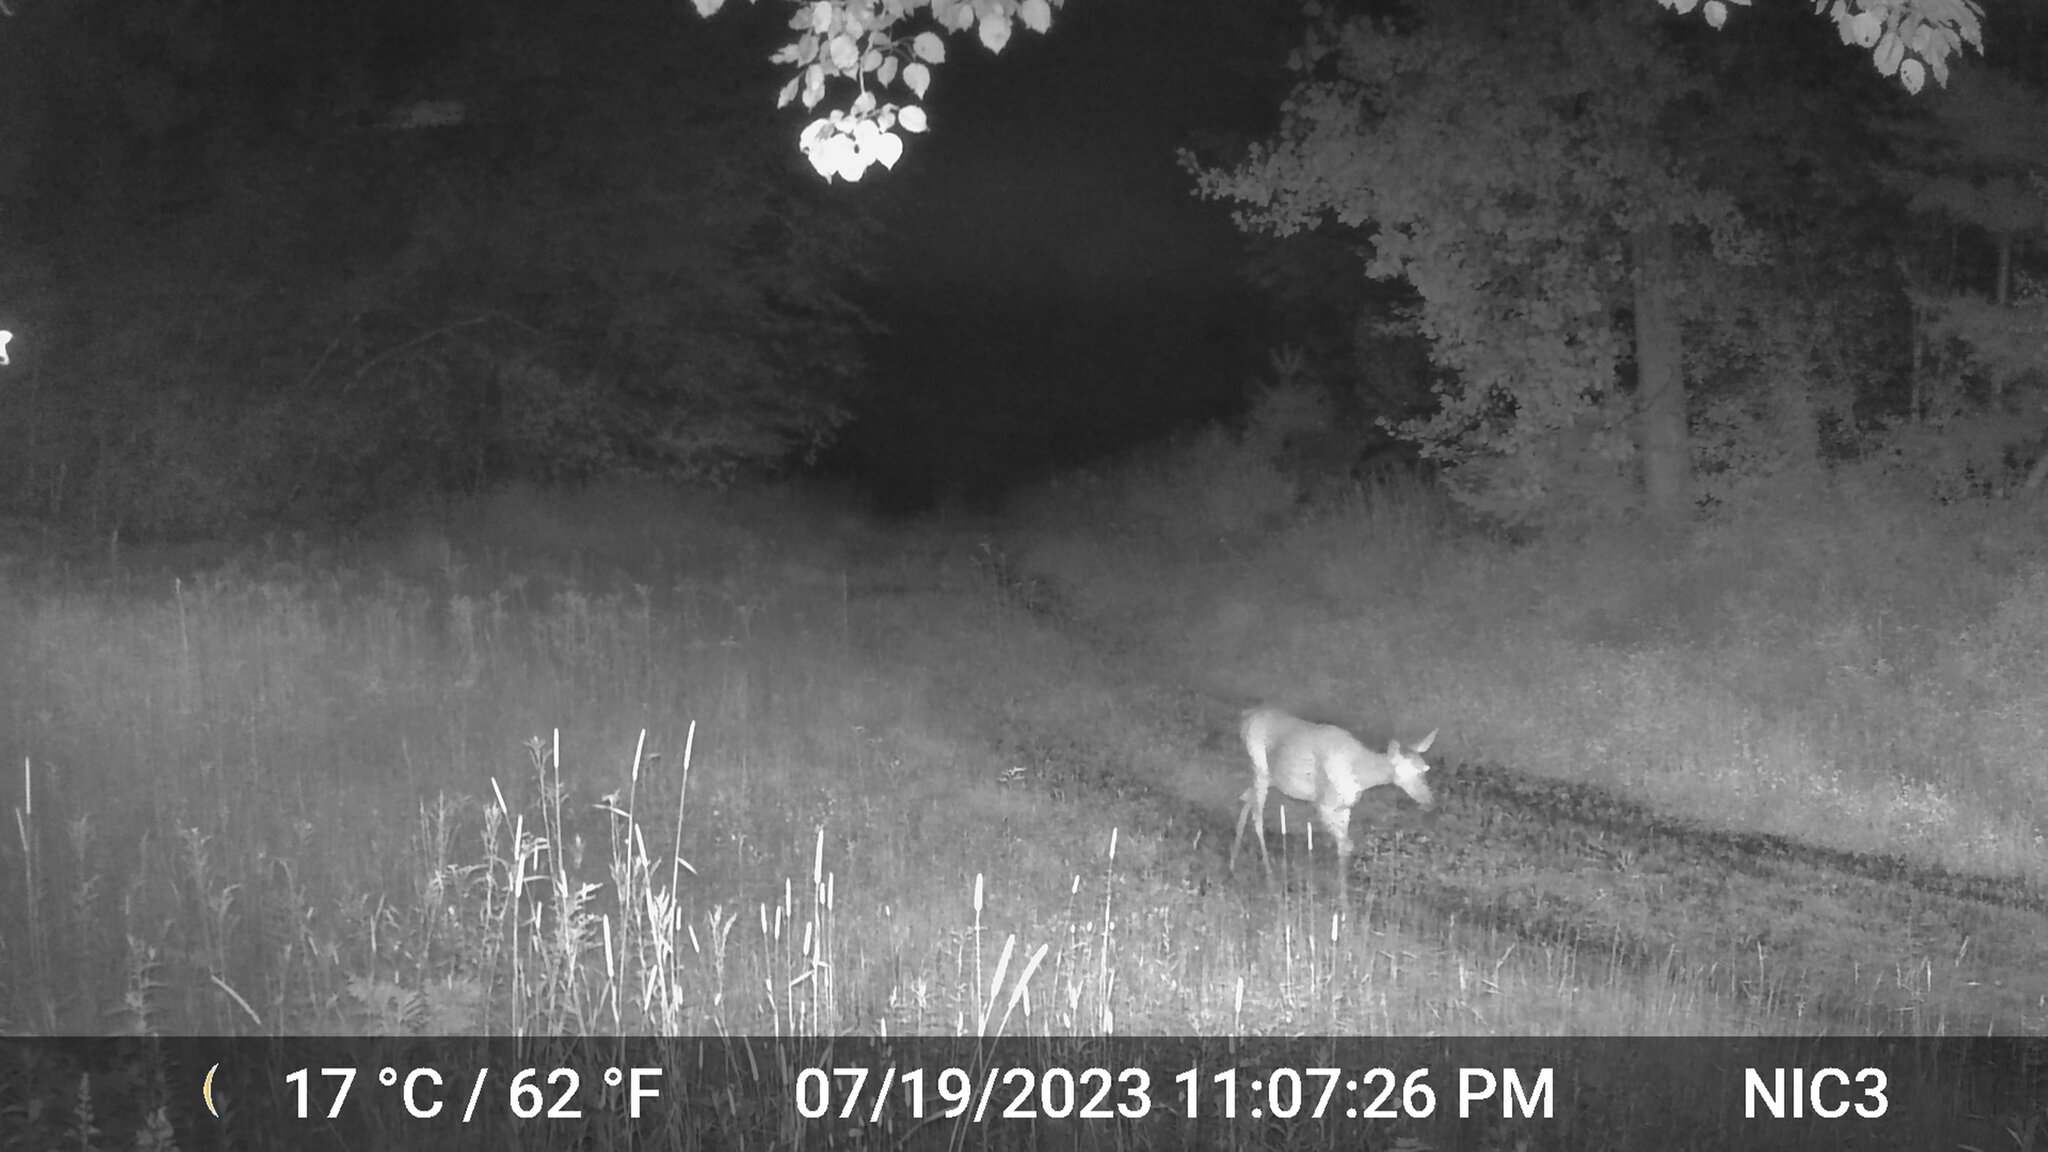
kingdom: Animalia
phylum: Chordata
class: Mammalia
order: Artiodactyla
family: Cervidae
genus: Odocoileus
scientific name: Odocoileus virginianus
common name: White-tailed deer
